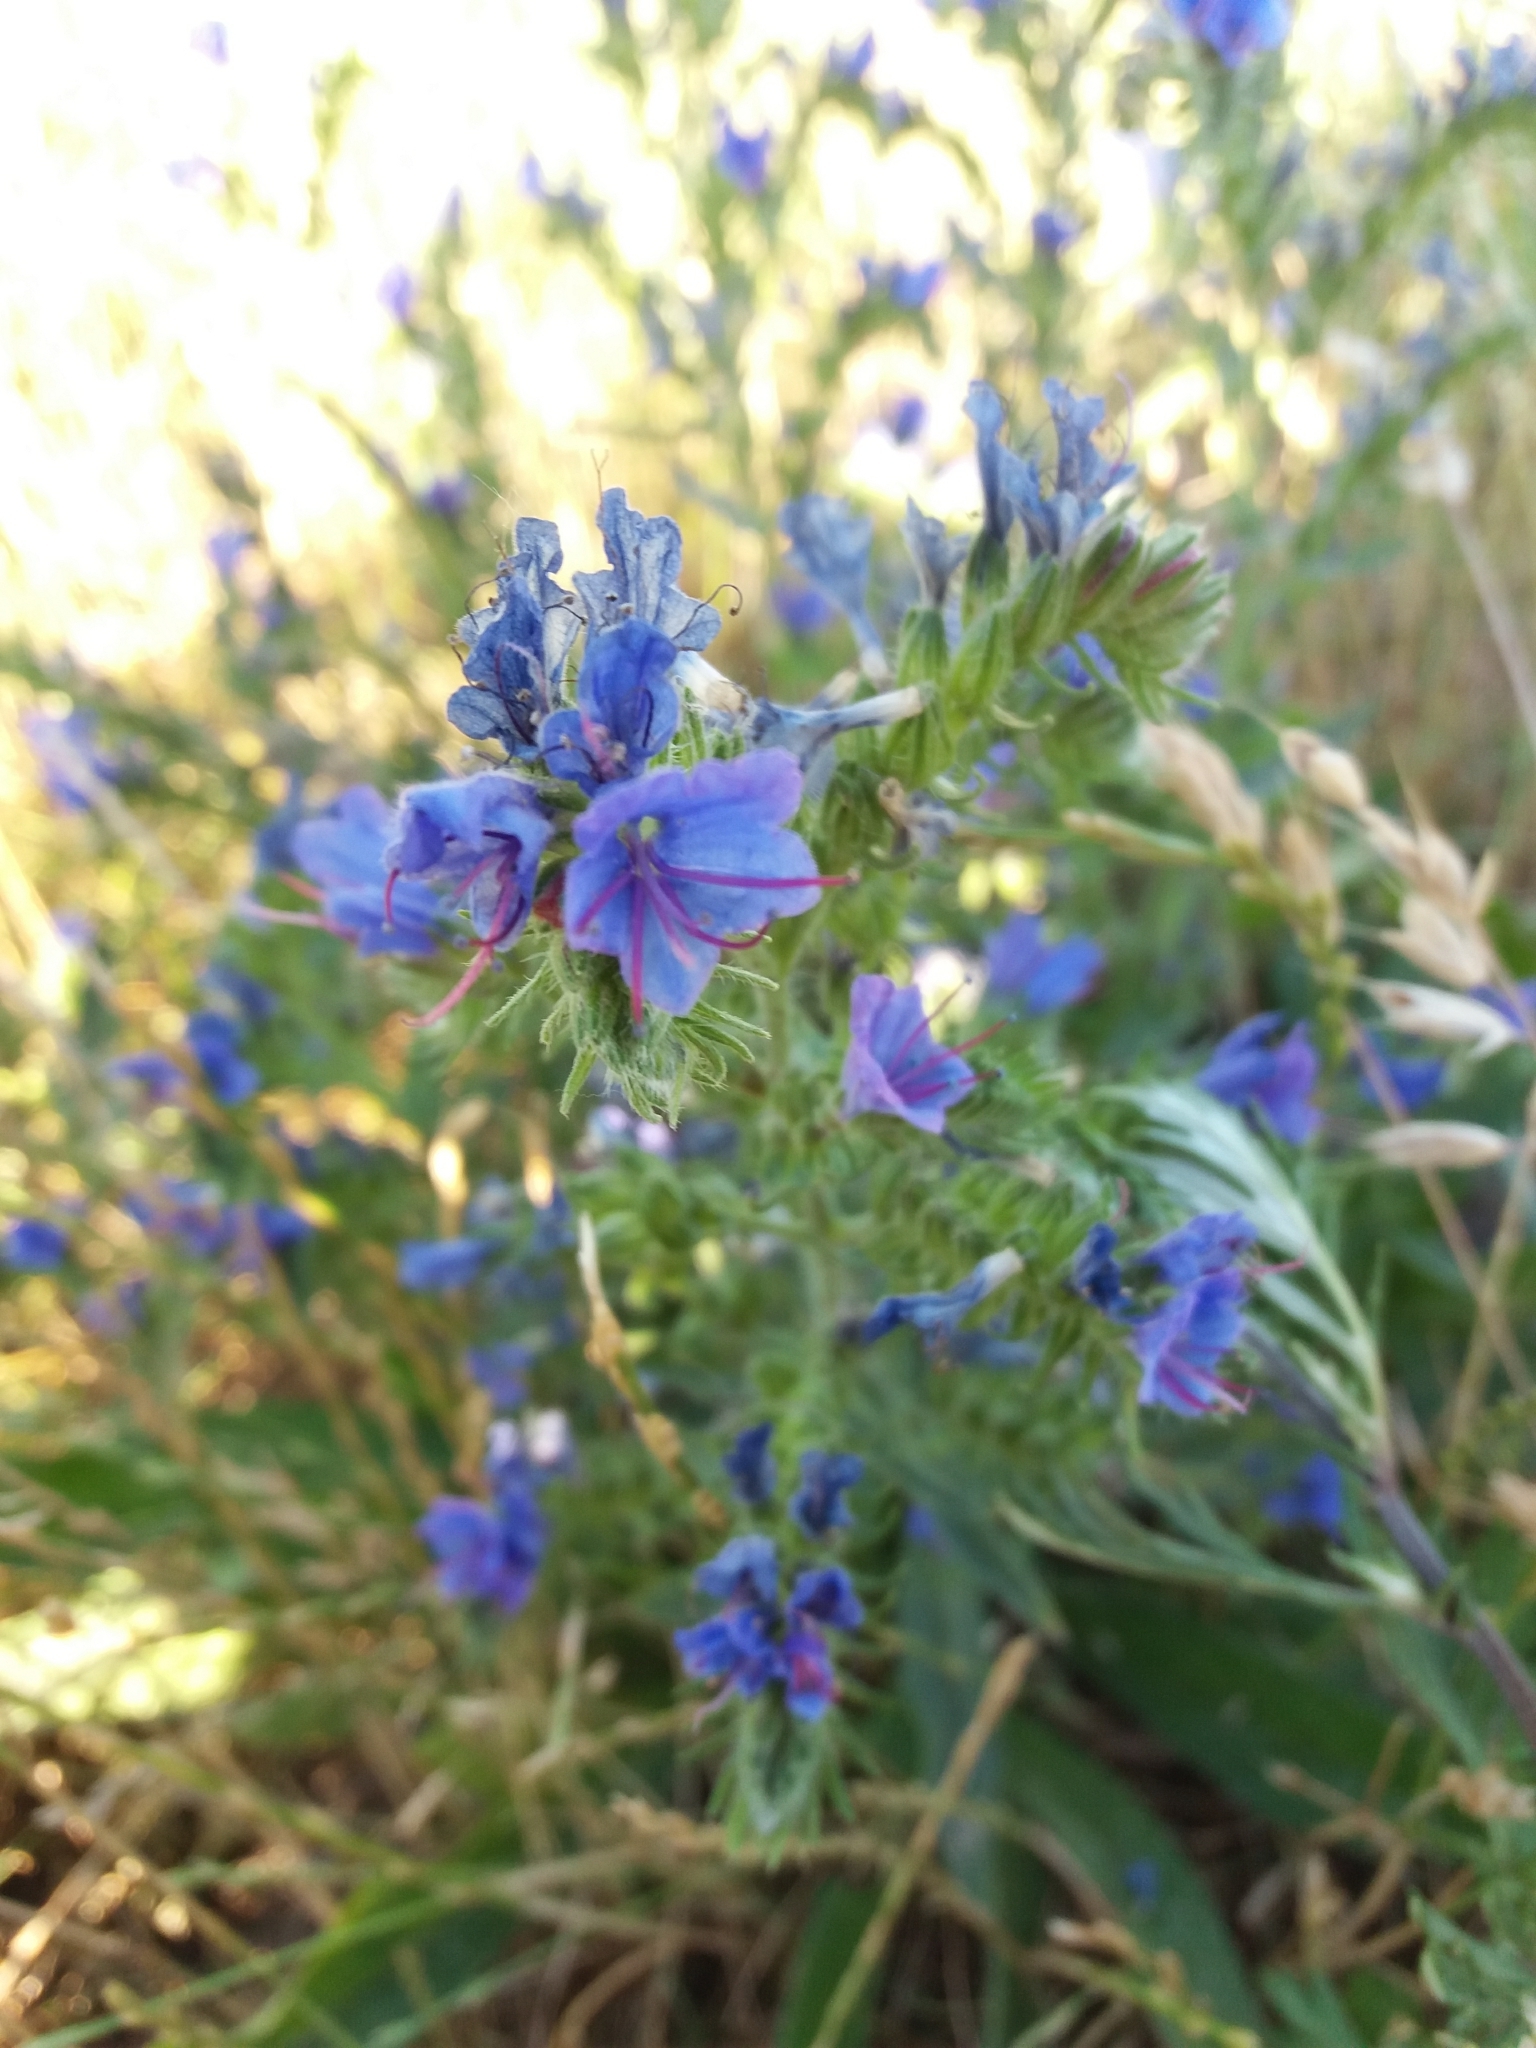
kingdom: Plantae
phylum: Tracheophyta
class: Magnoliopsida
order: Boraginales
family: Boraginaceae
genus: Echium
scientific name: Echium vulgare
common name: Common viper's bugloss
